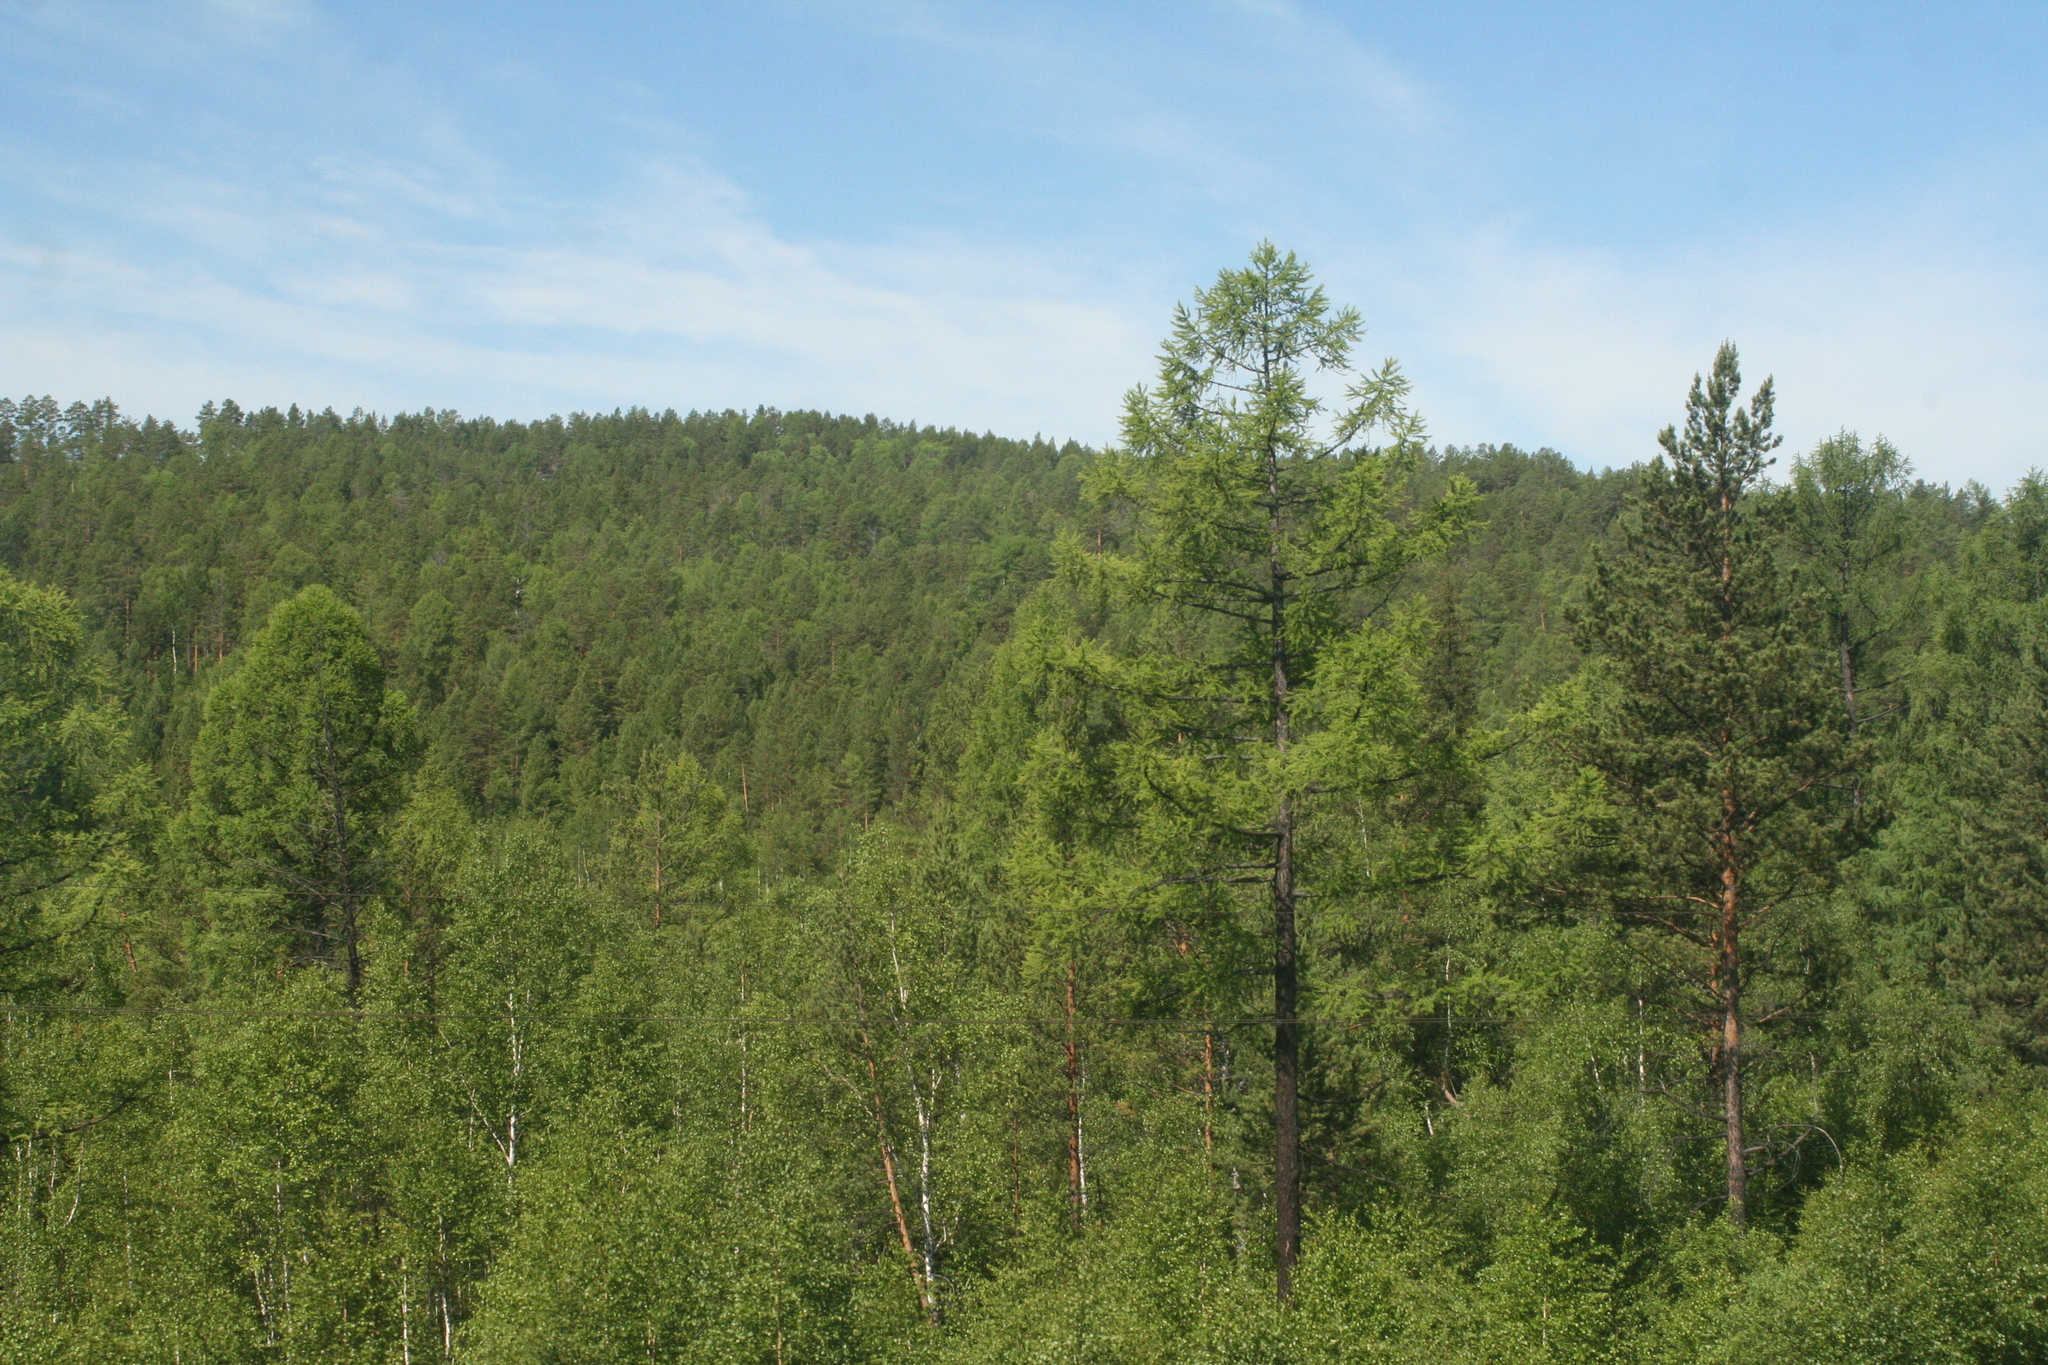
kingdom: Plantae
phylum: Tracheophyta
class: Pinopsida
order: Pinales
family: Pinaceae
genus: Larix
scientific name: Larix sibirica
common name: Siberian larch
